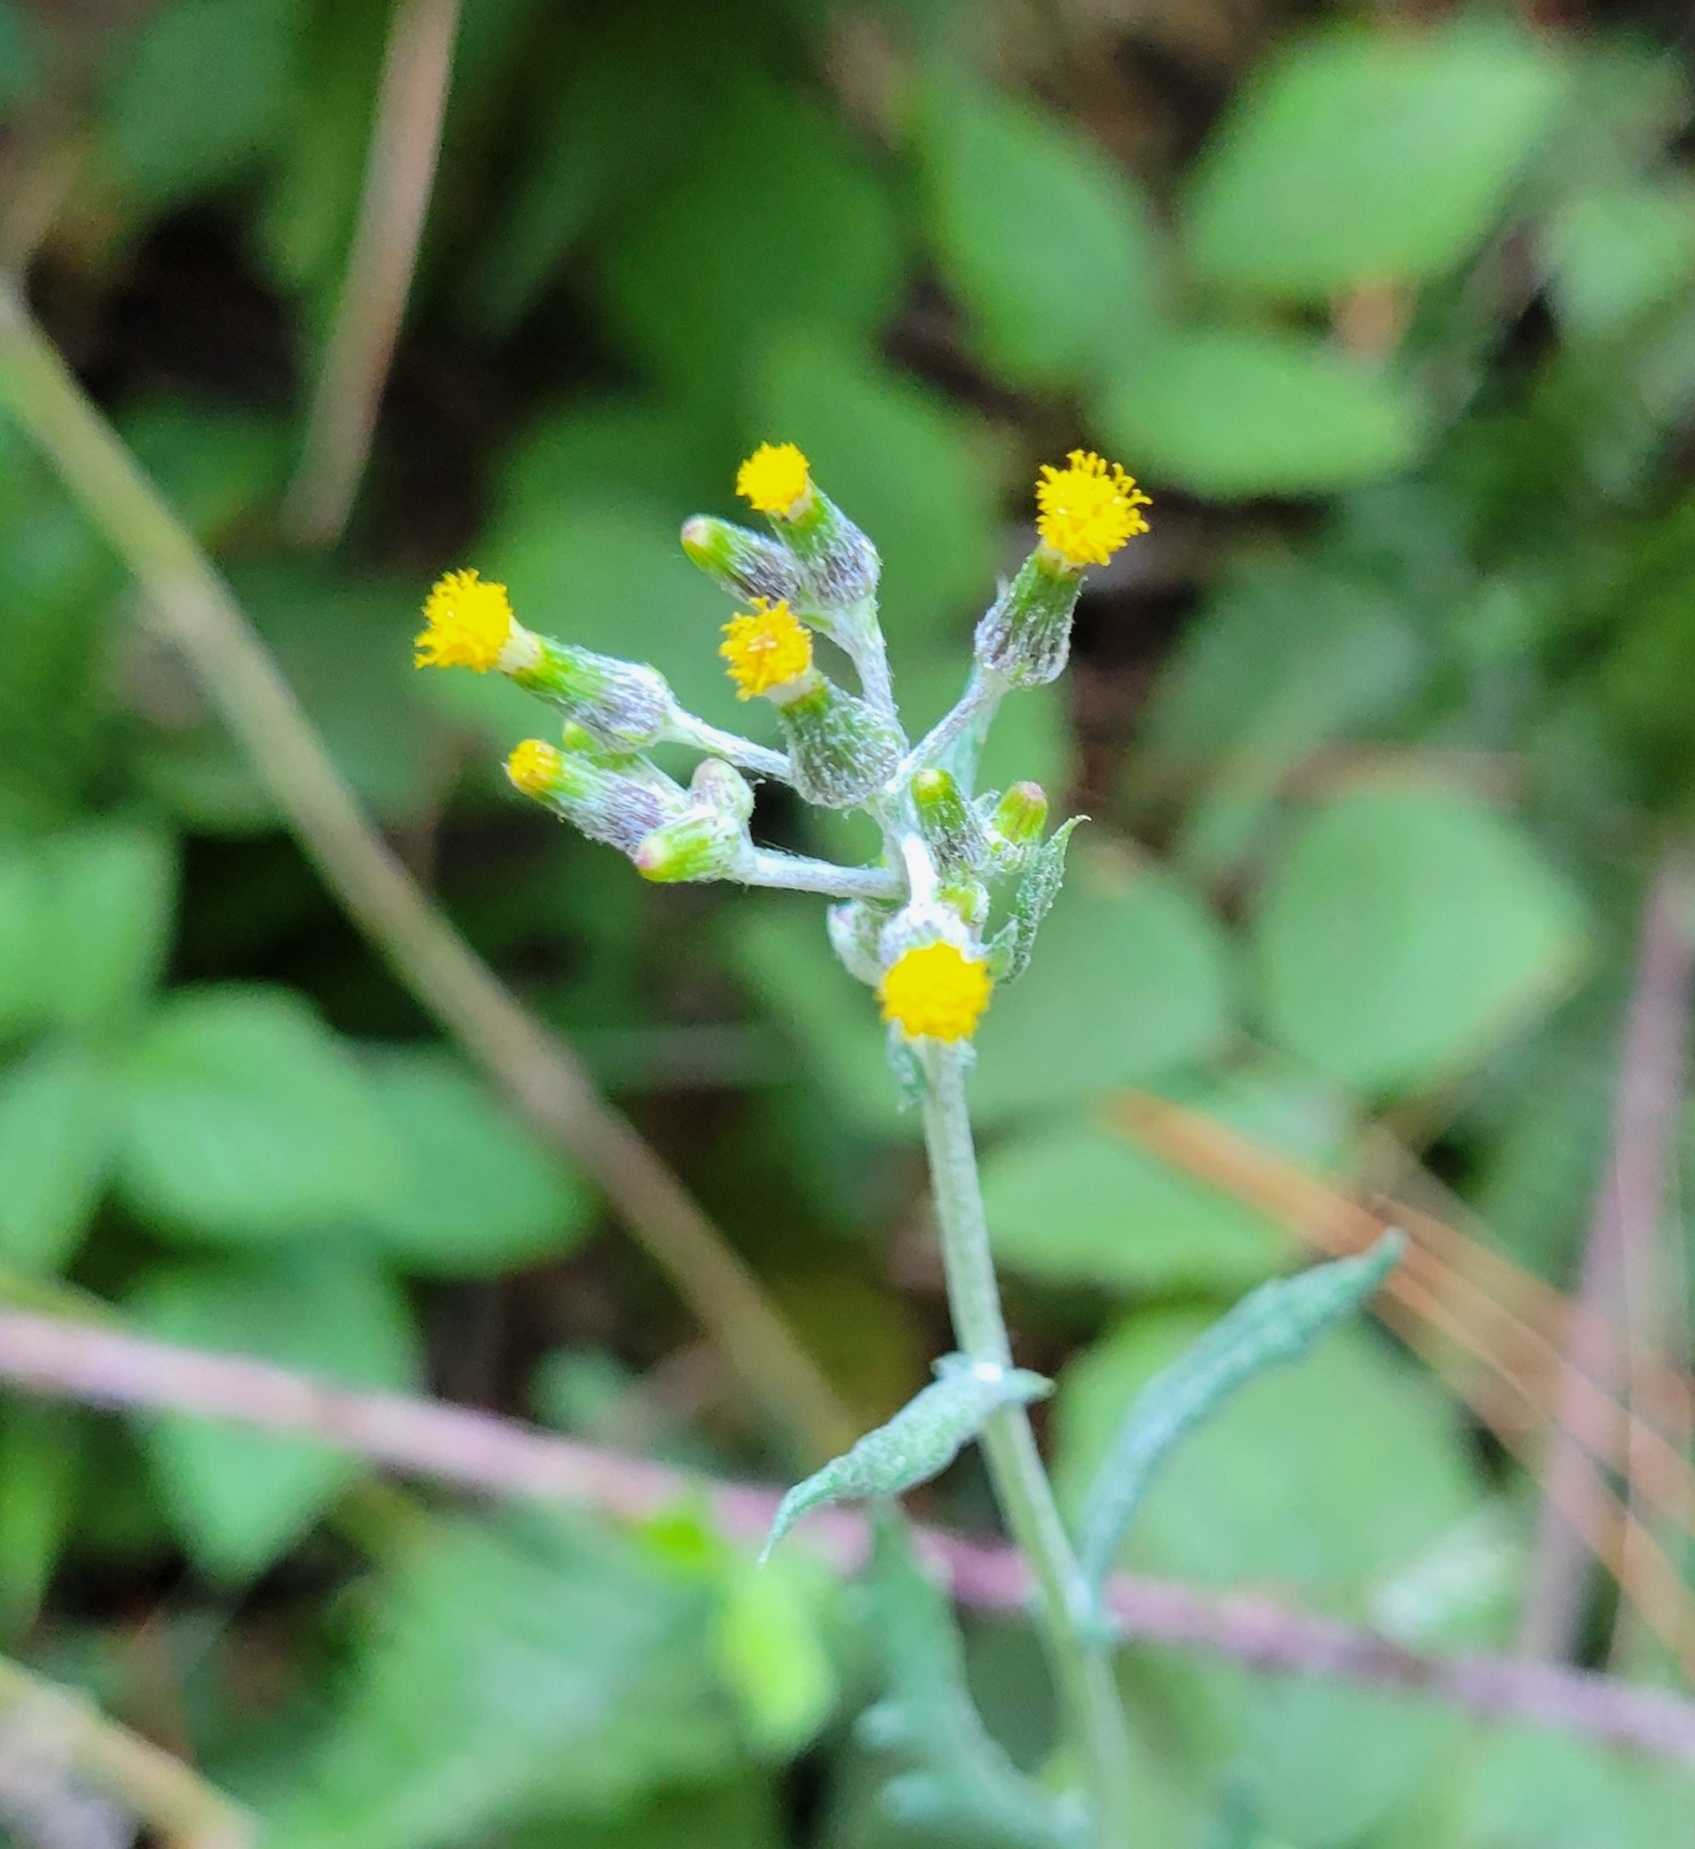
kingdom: Plantae
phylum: Tracheophyta
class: Magnoliopsida
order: Asterales
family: Asteraceae
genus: Senecio
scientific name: Senecio vulgaris
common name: Old-man-in-the-spring
